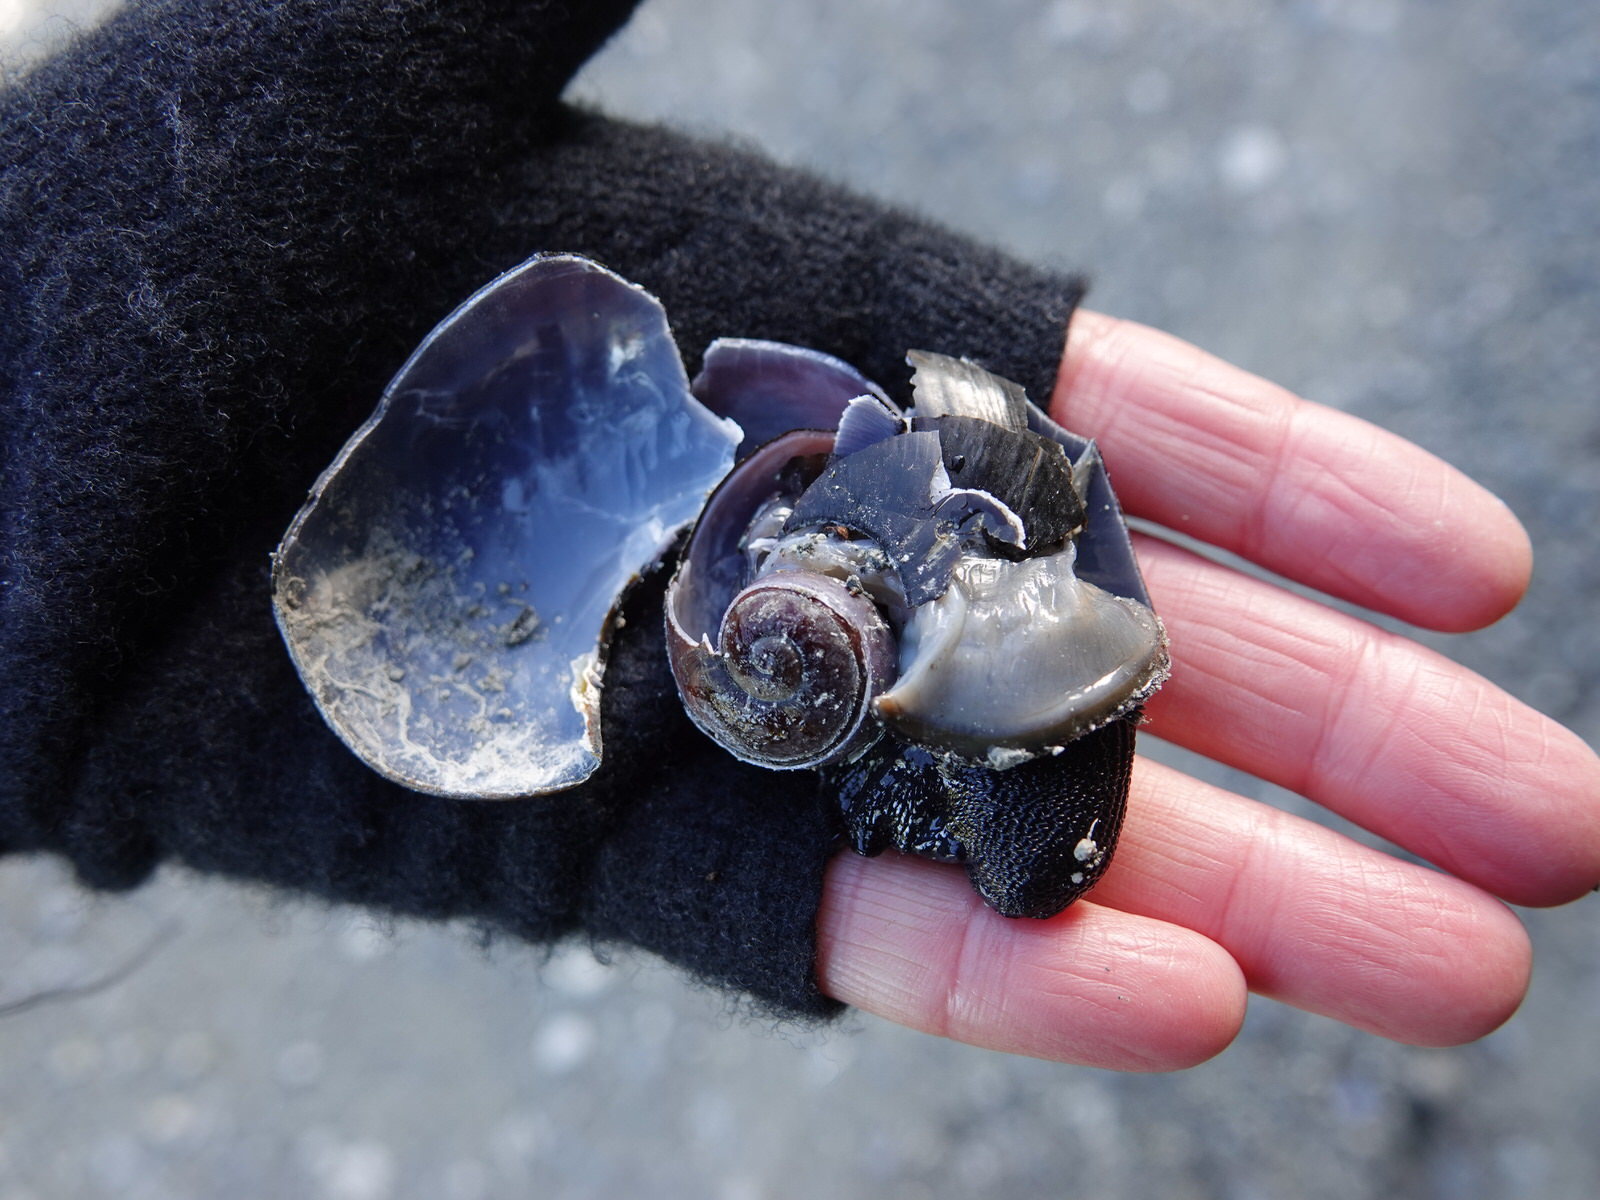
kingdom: Animalia
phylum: Mollusca
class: Gastropoda
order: Stylommatophora
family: Rhytididae
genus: Paryphanta
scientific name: Paryphanta busbyi
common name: Kauri snail
